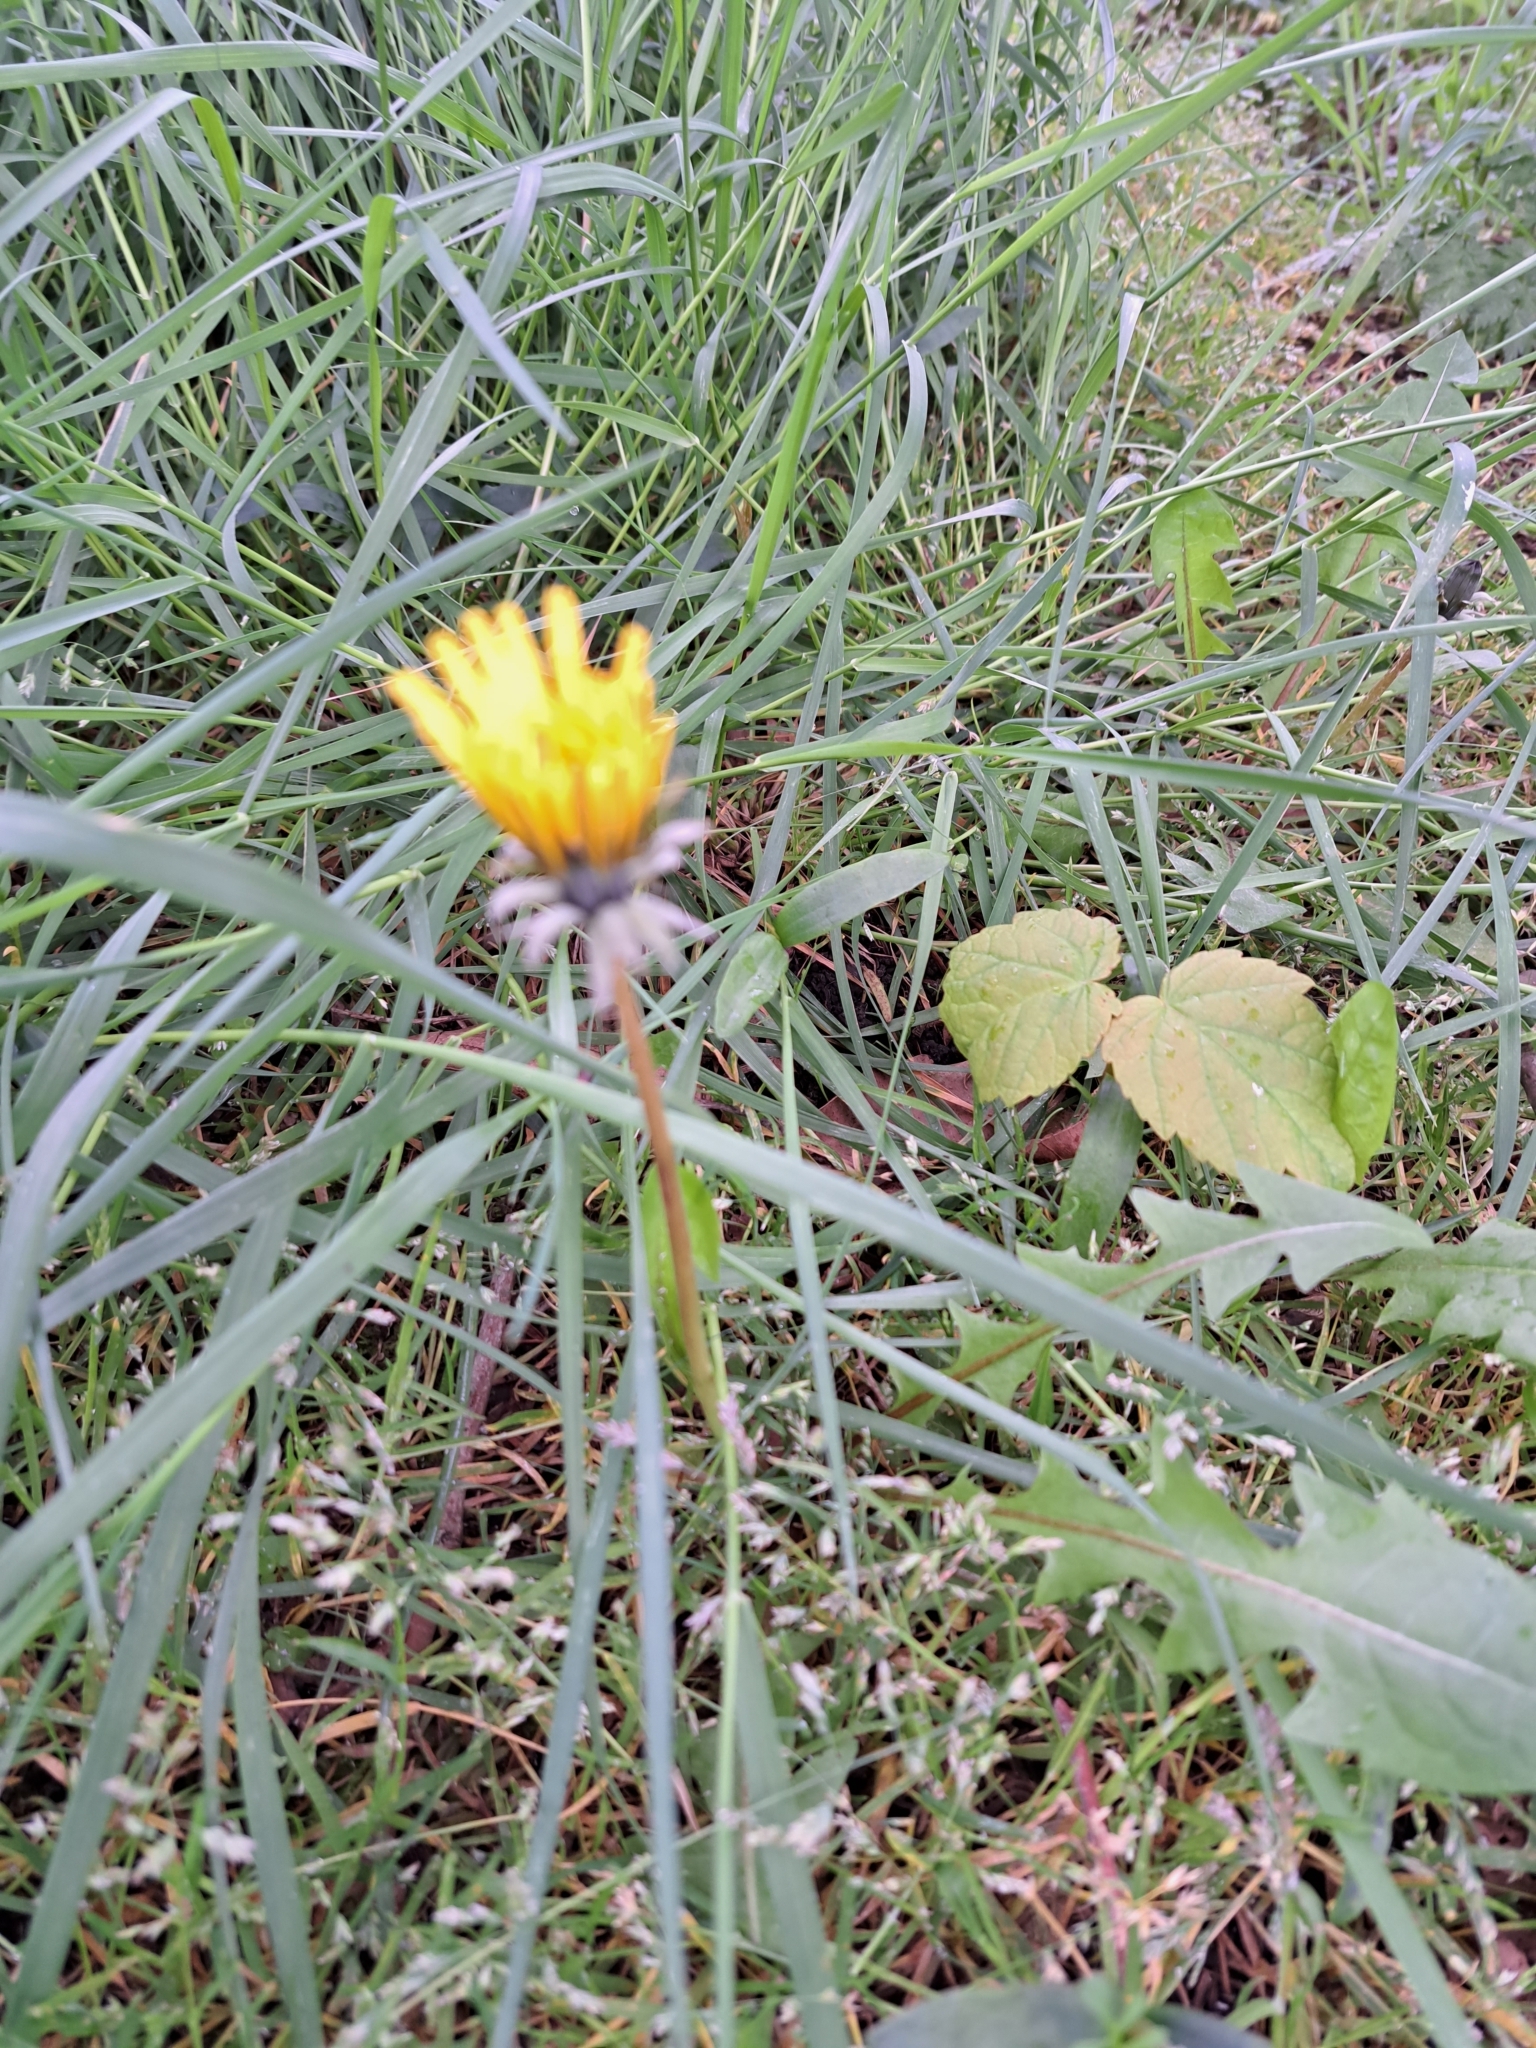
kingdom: Plantae
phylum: Tracheophyta
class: Magnoliopsida
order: Asterales
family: Asteraceae
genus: Taraxacum
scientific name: Taraxacum officinale
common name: Common dandelion
